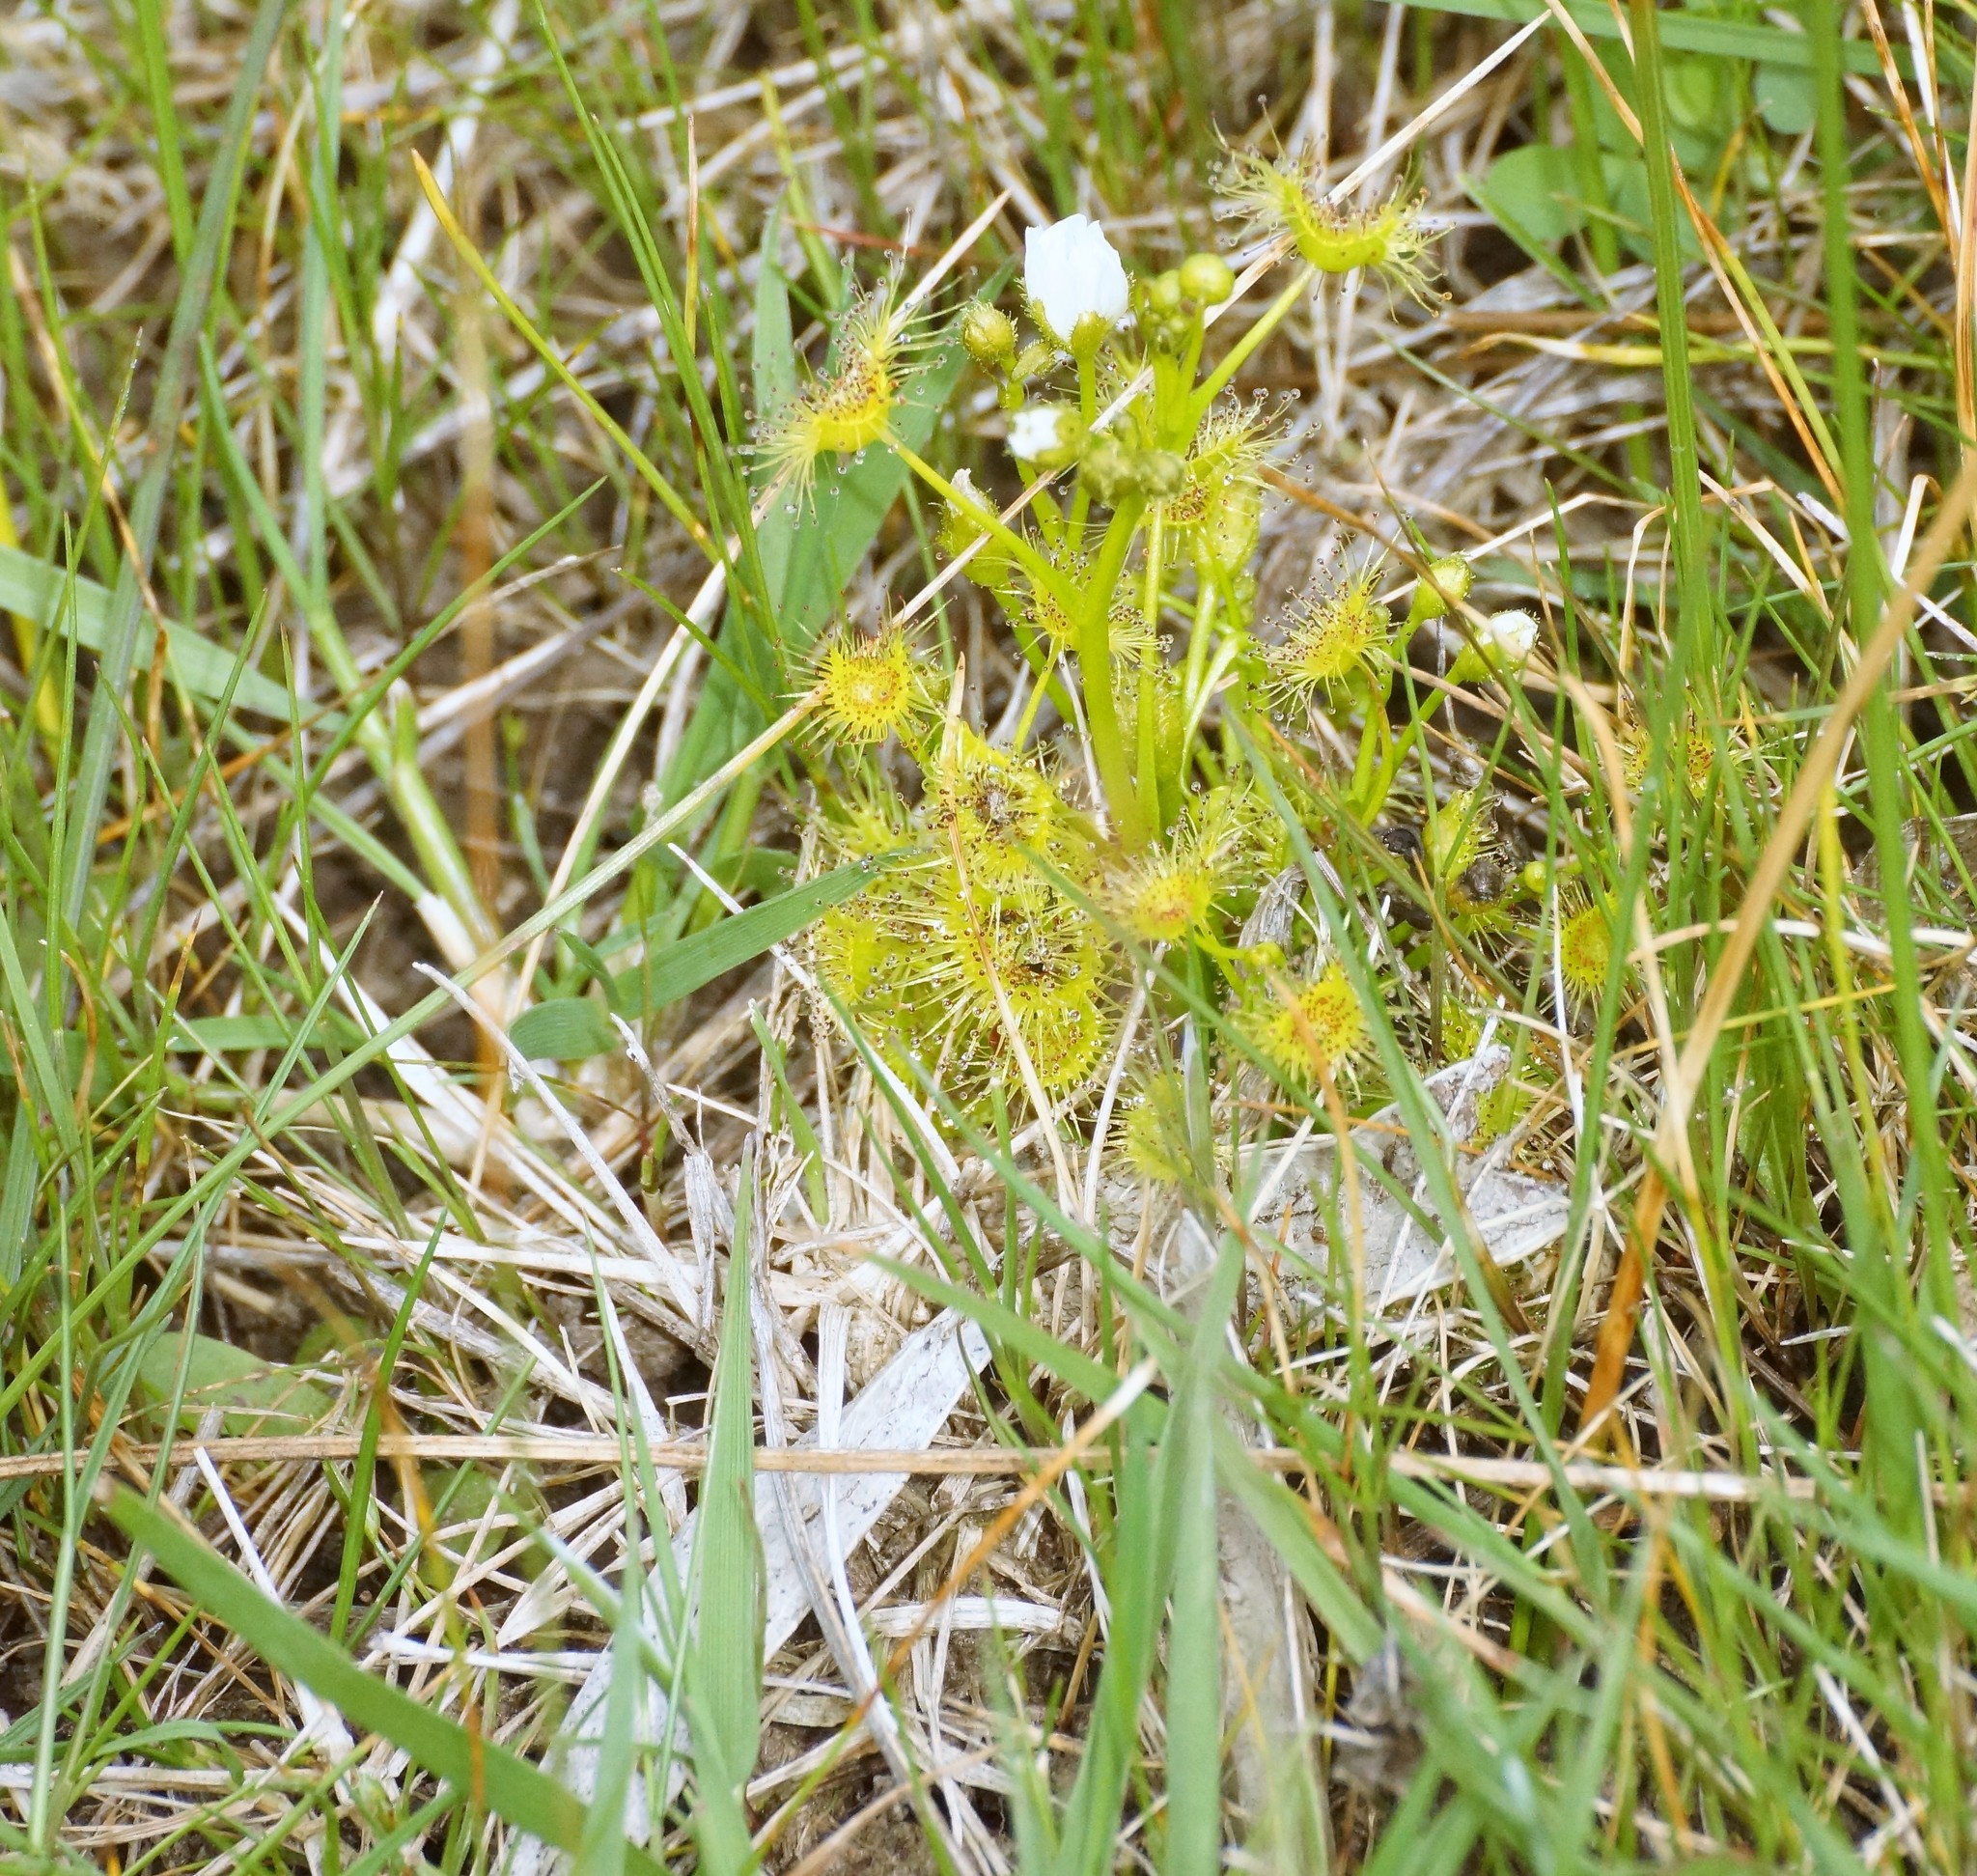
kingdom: Plantae
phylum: Tracheophyta
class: Magnoliopsida
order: Caryophyllales
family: Droseraceae
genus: Drosera
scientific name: Drosera hookeri
